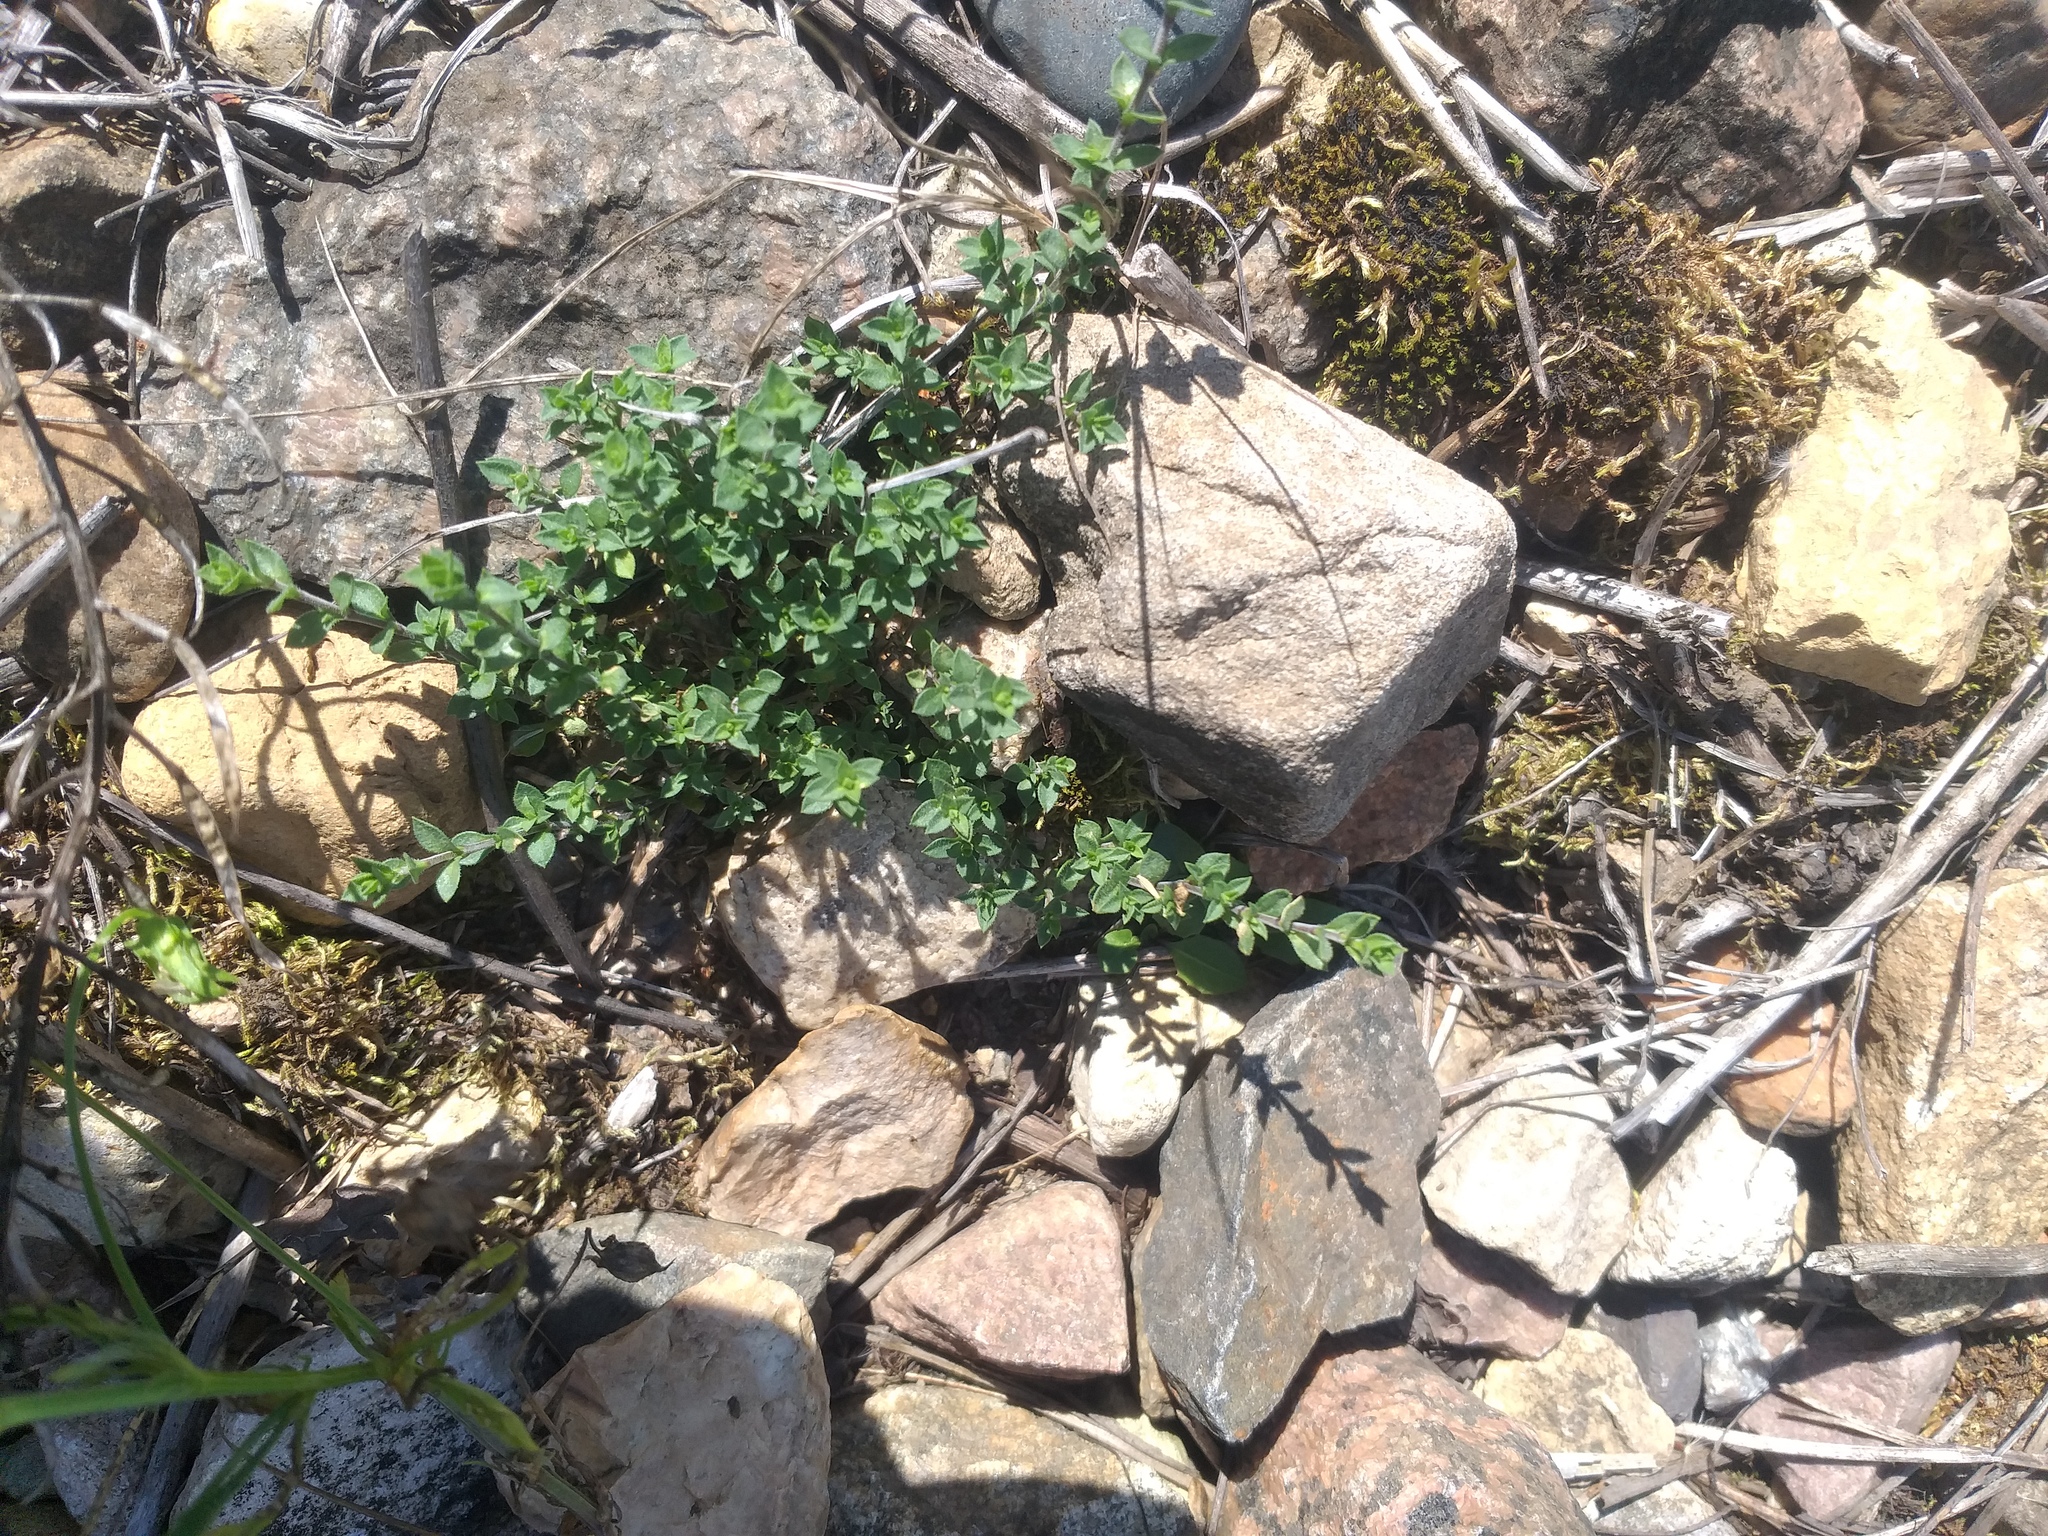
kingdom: Plantae
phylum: Tracheophyta
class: Magnoliopsida
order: Caryophyllales
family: Caryophyllaceae
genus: Arenaria
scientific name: Arenaria serpyllifolia
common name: Thyme-leaved sandwort
